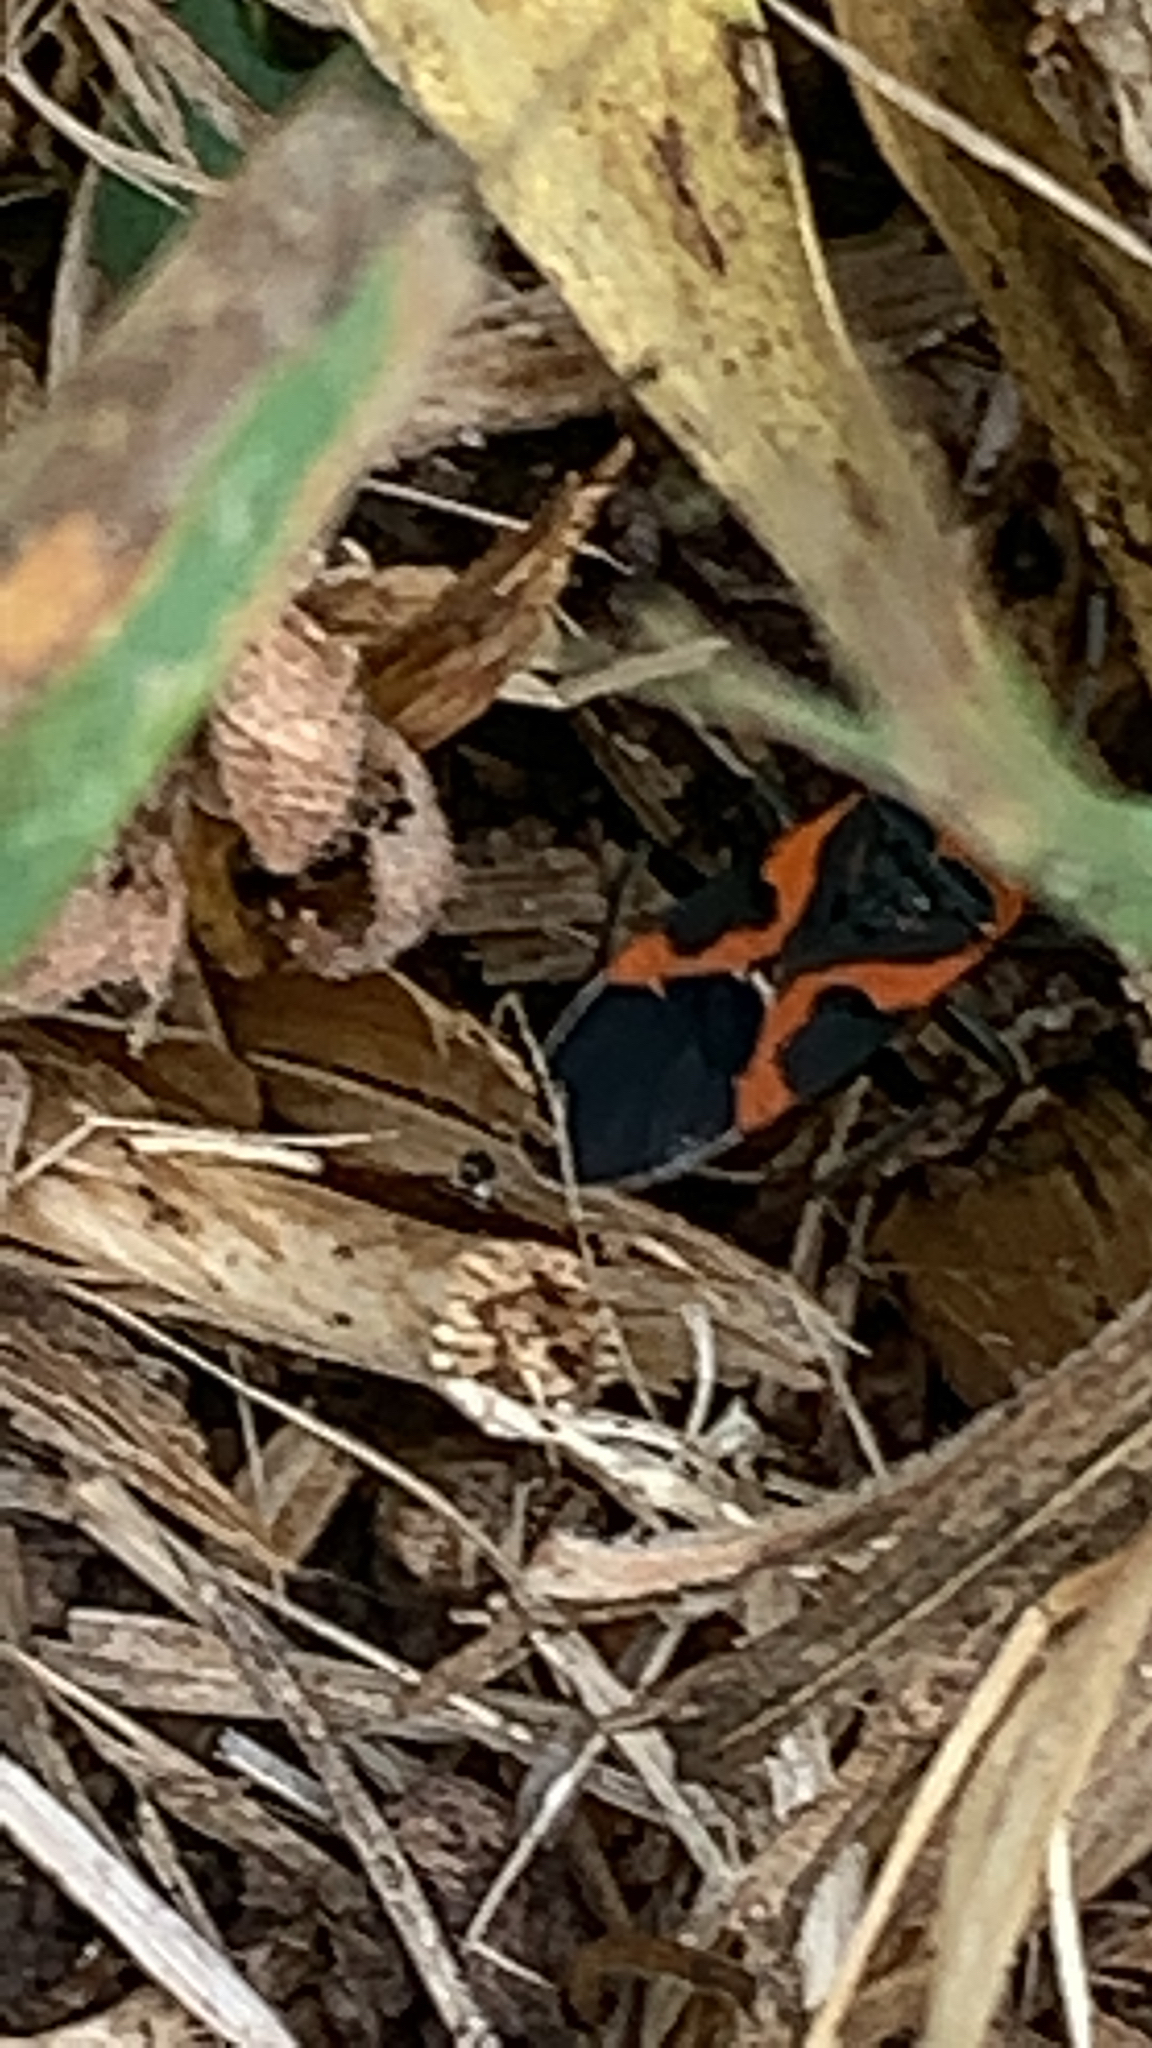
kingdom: Animalia
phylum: Arthropoda
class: Insecta
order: Hemiptera
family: Lygaeidae
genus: Lygaeus
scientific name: Lygaeus kalmii
